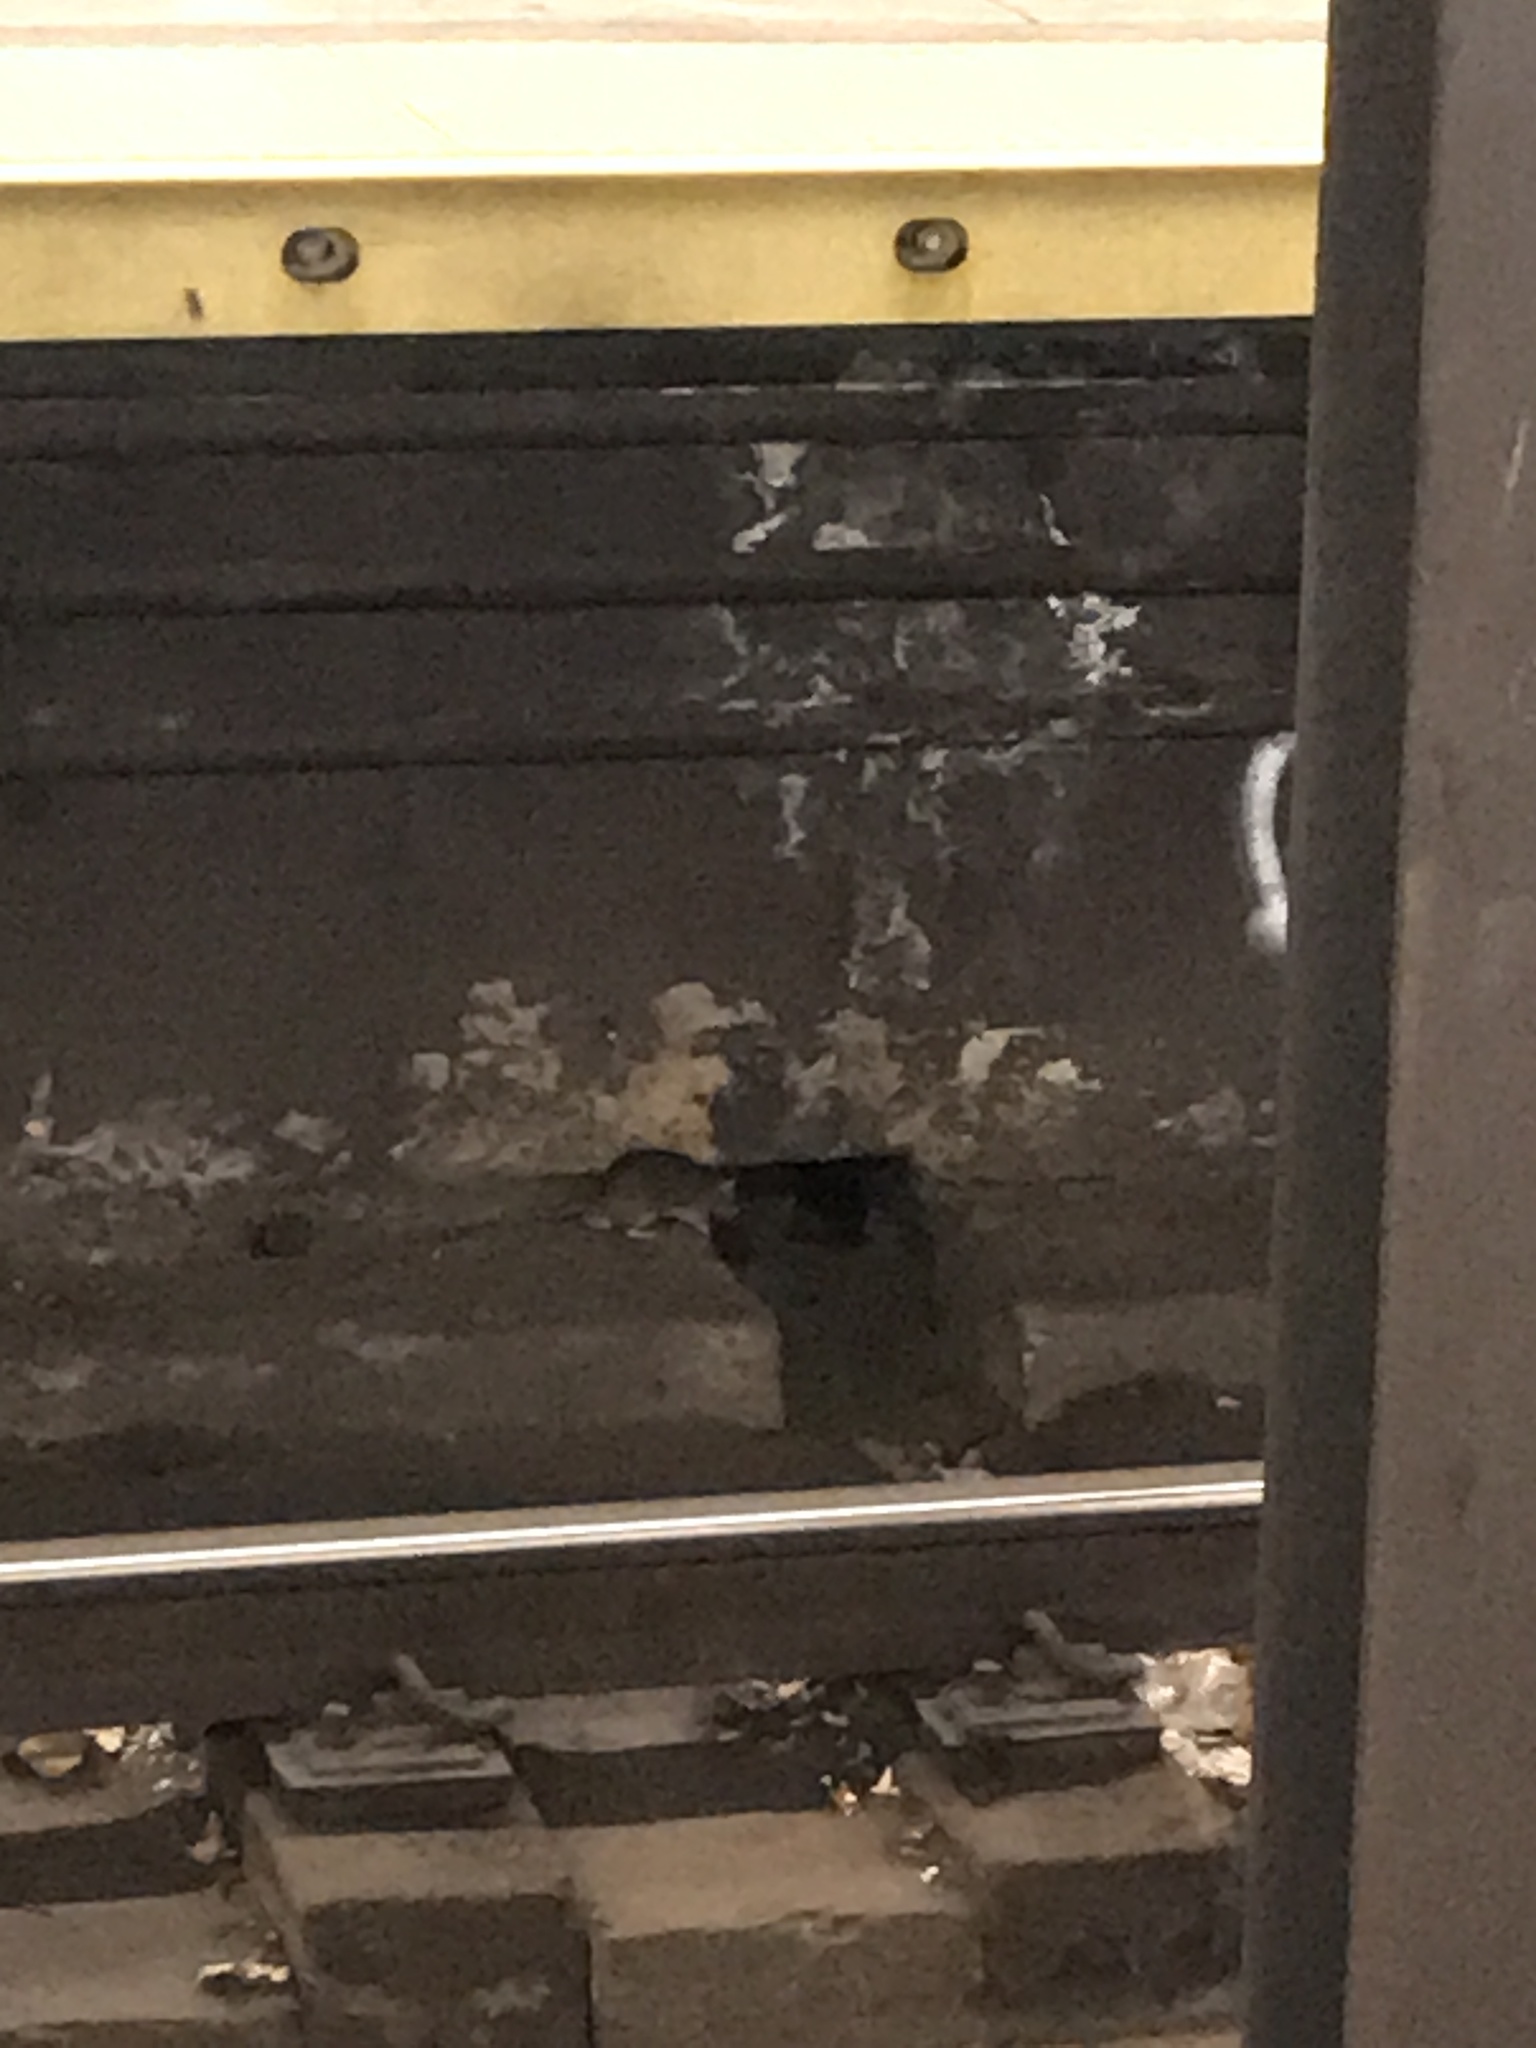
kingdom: Animalia
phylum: Chordata
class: Mammalia
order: Rodentia
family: Muridae
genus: Rattus
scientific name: Rattus norvegicus
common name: Brown rat
